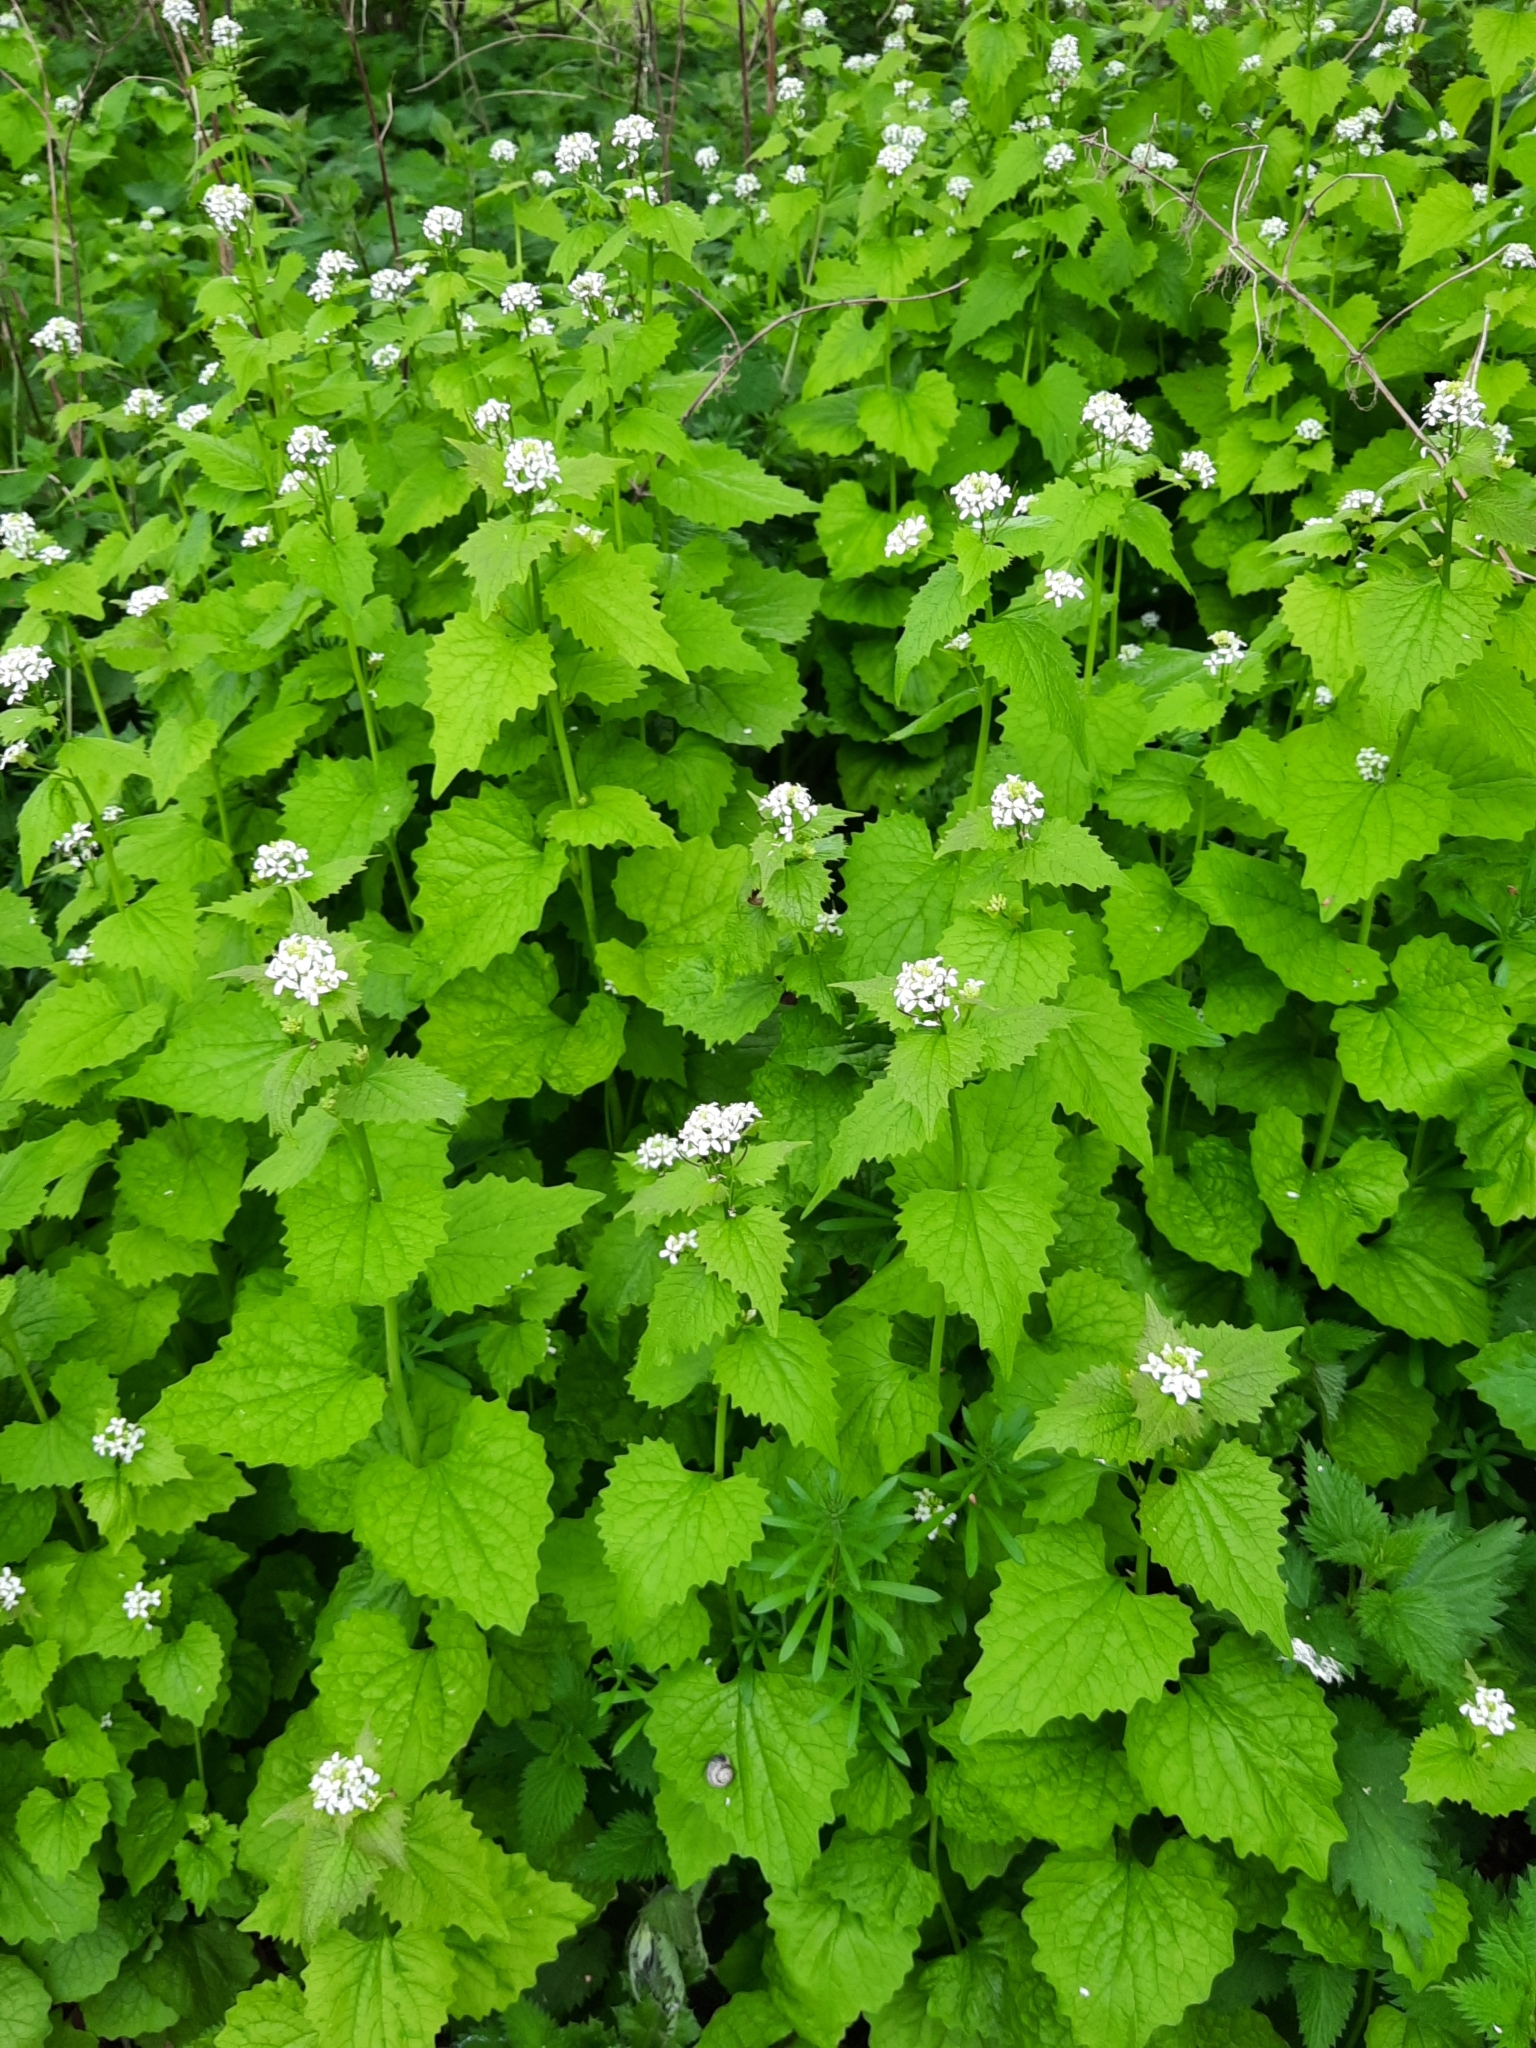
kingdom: Plantae
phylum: Tracheophyta
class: Magnoliopsida
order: Brassicales
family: Brassicaceae
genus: Alliaria
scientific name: Alliaria petiolata
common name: Garlic mustard
